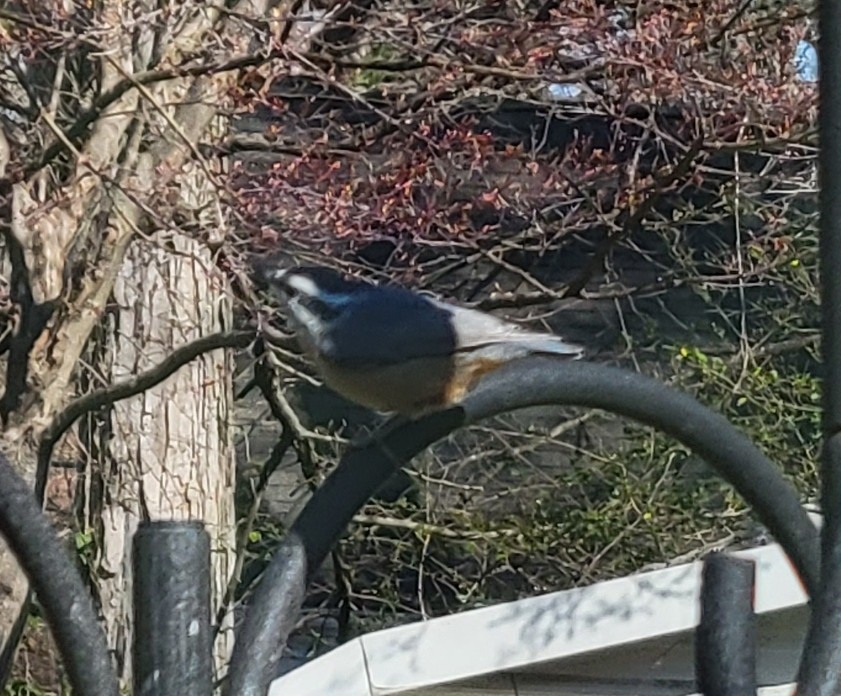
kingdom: Animalia
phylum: Chordata
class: Aves
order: Passeriformes
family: Sittidae
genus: Sitta
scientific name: Sitta canadensis
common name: Red-breasted nuthatch
